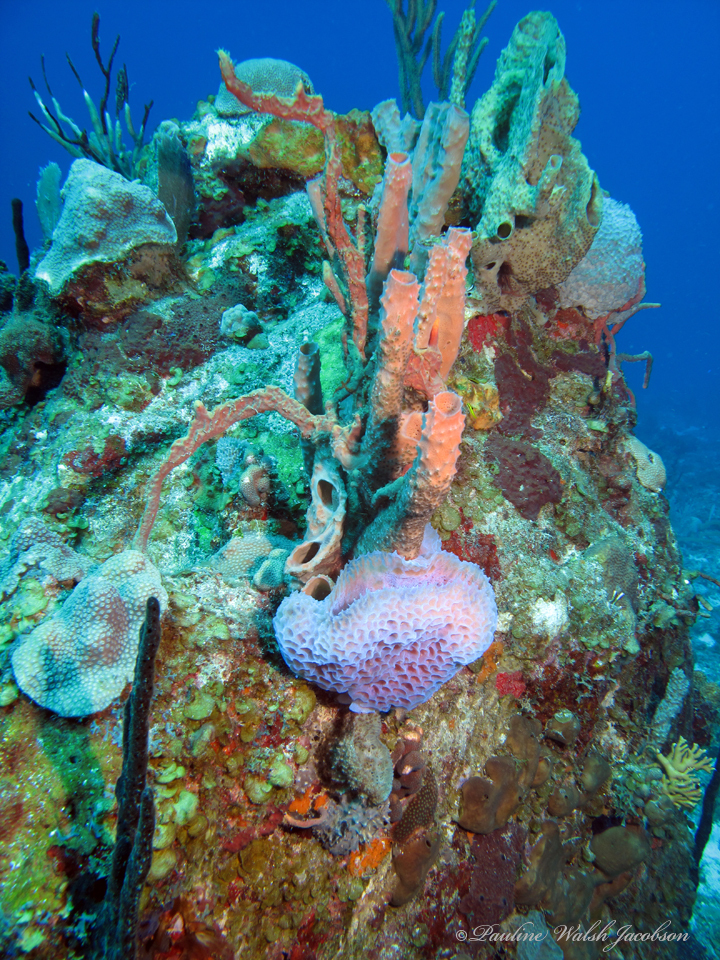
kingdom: Animalia
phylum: Porifera
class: Demospongiae
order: Haplosclerida
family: Callyspongiidae
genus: Callyspongia
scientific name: Callyspongia plicifera
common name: Azure vase sponge
